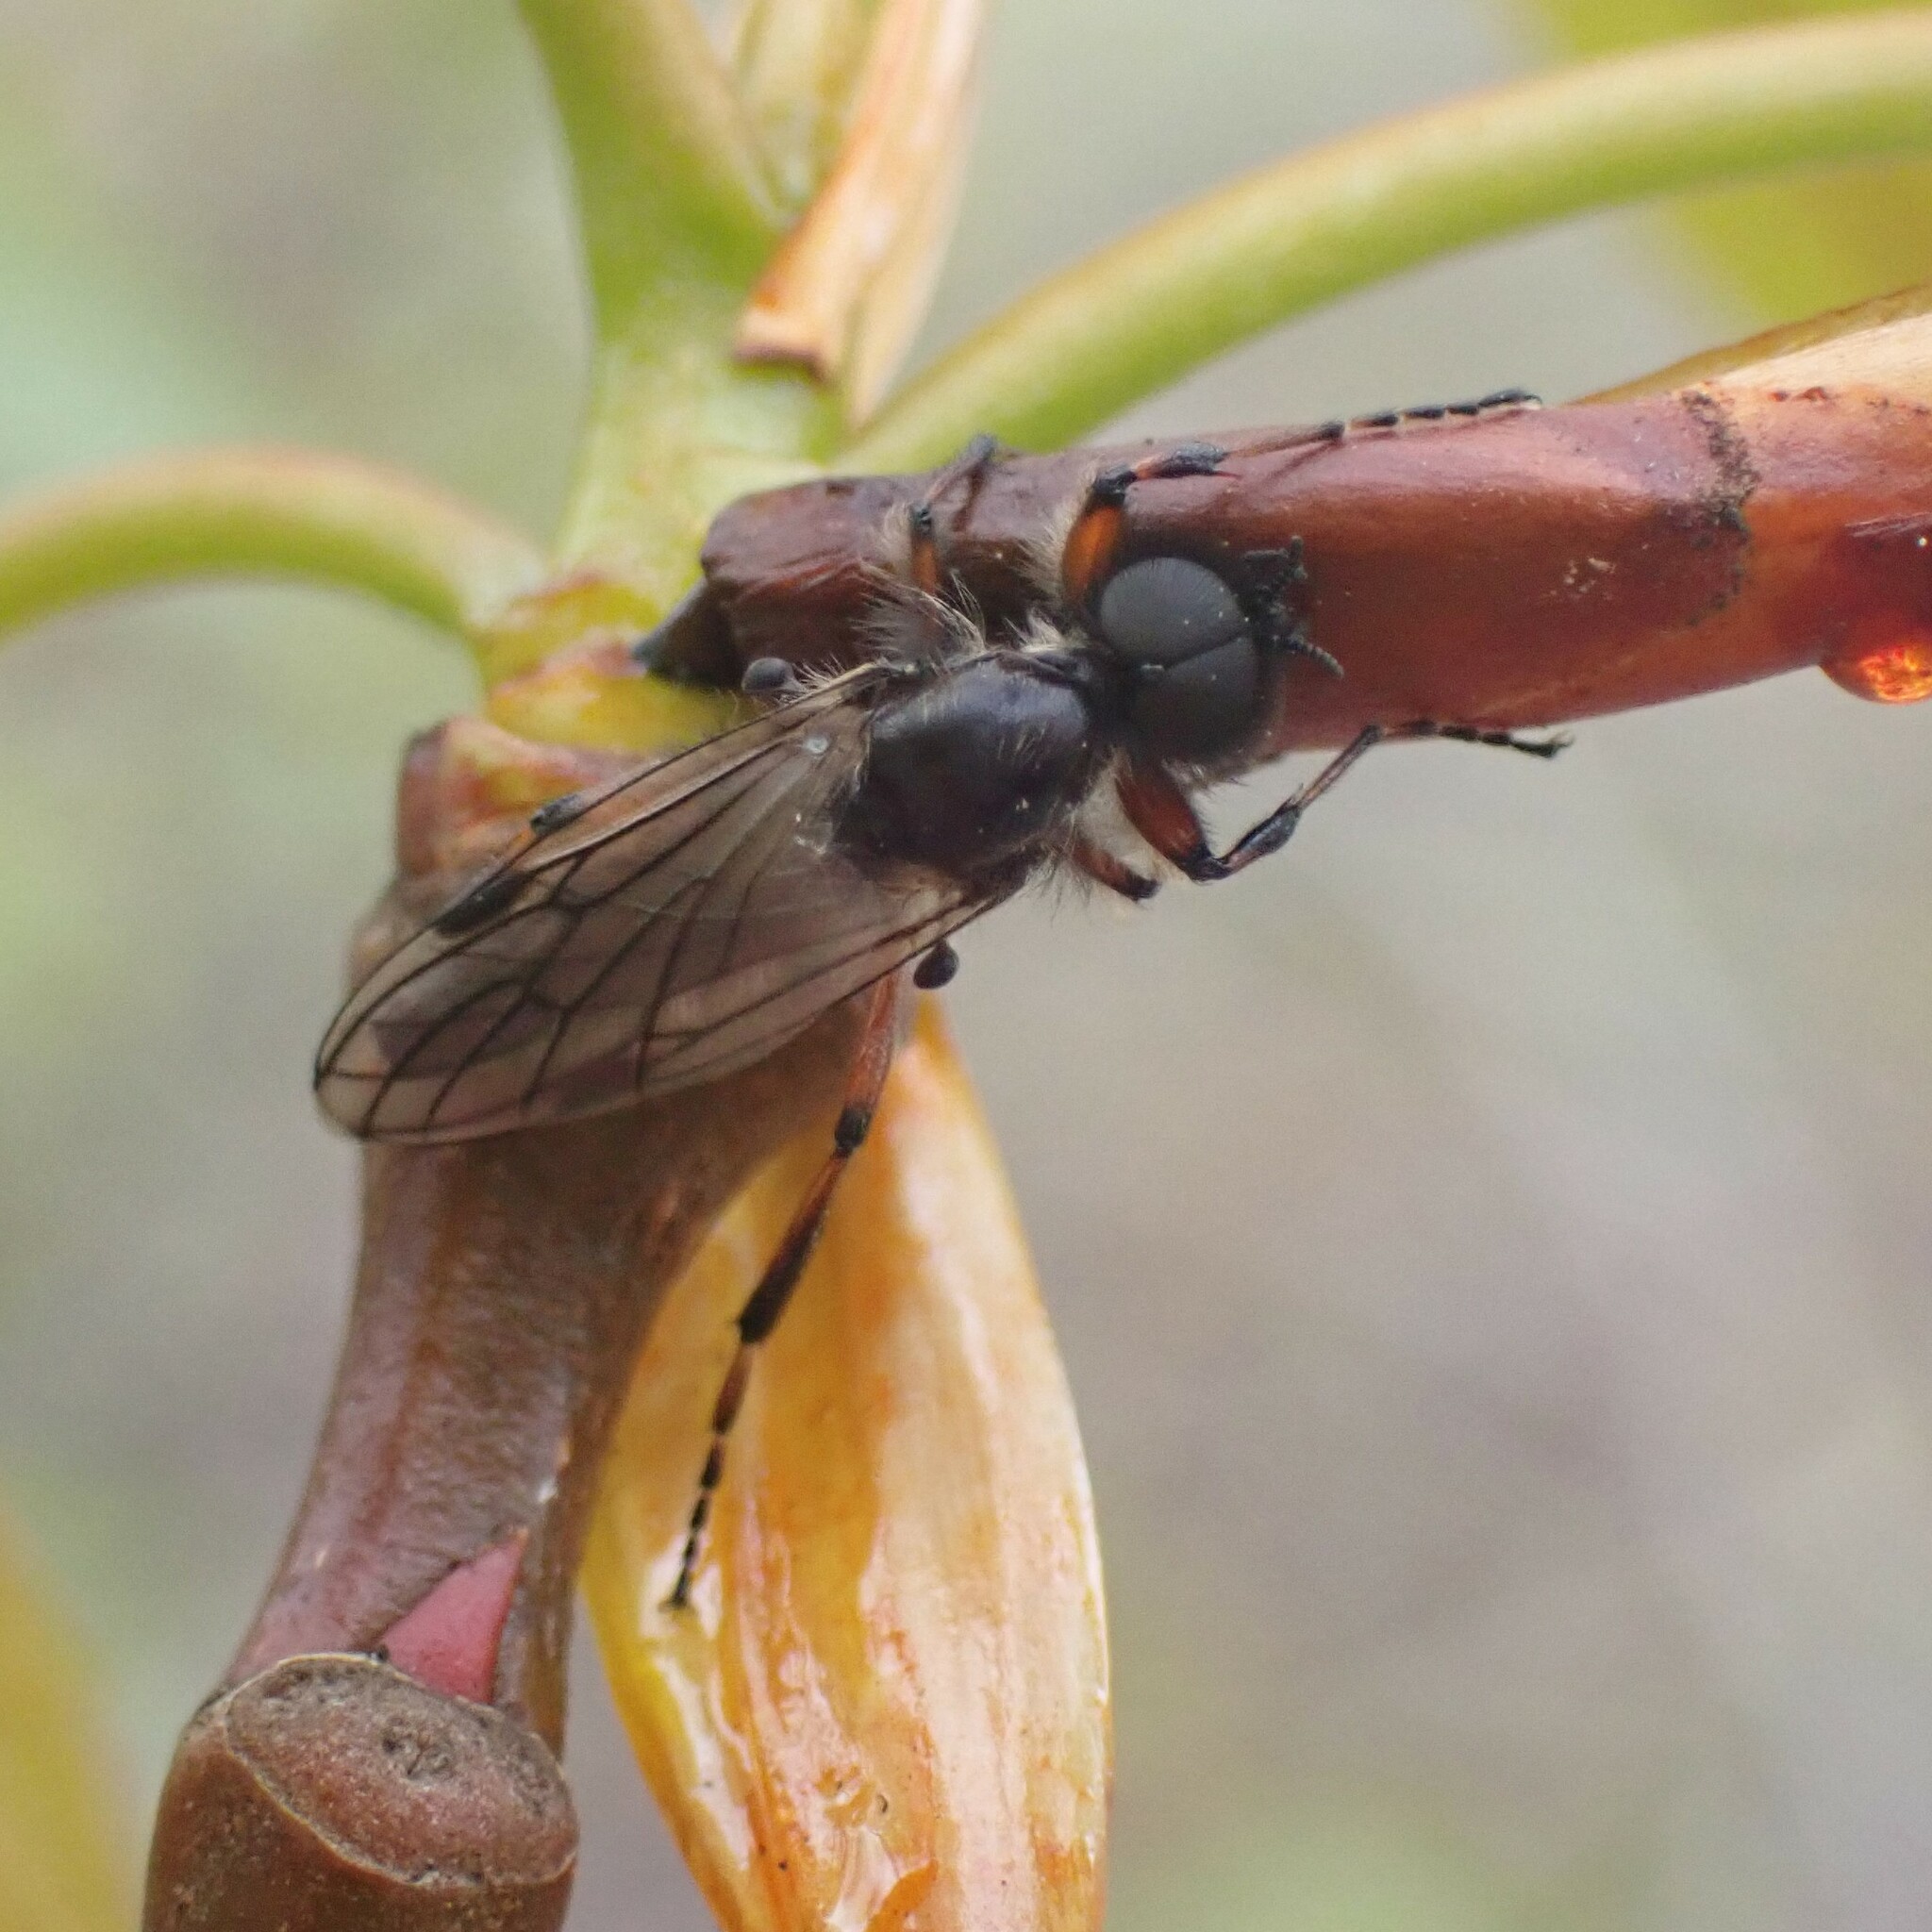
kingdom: Animalia
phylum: Arthropoda
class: Insecta
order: Diptera
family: Bibionidae
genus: Bibio
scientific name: Bibio xanthopus
